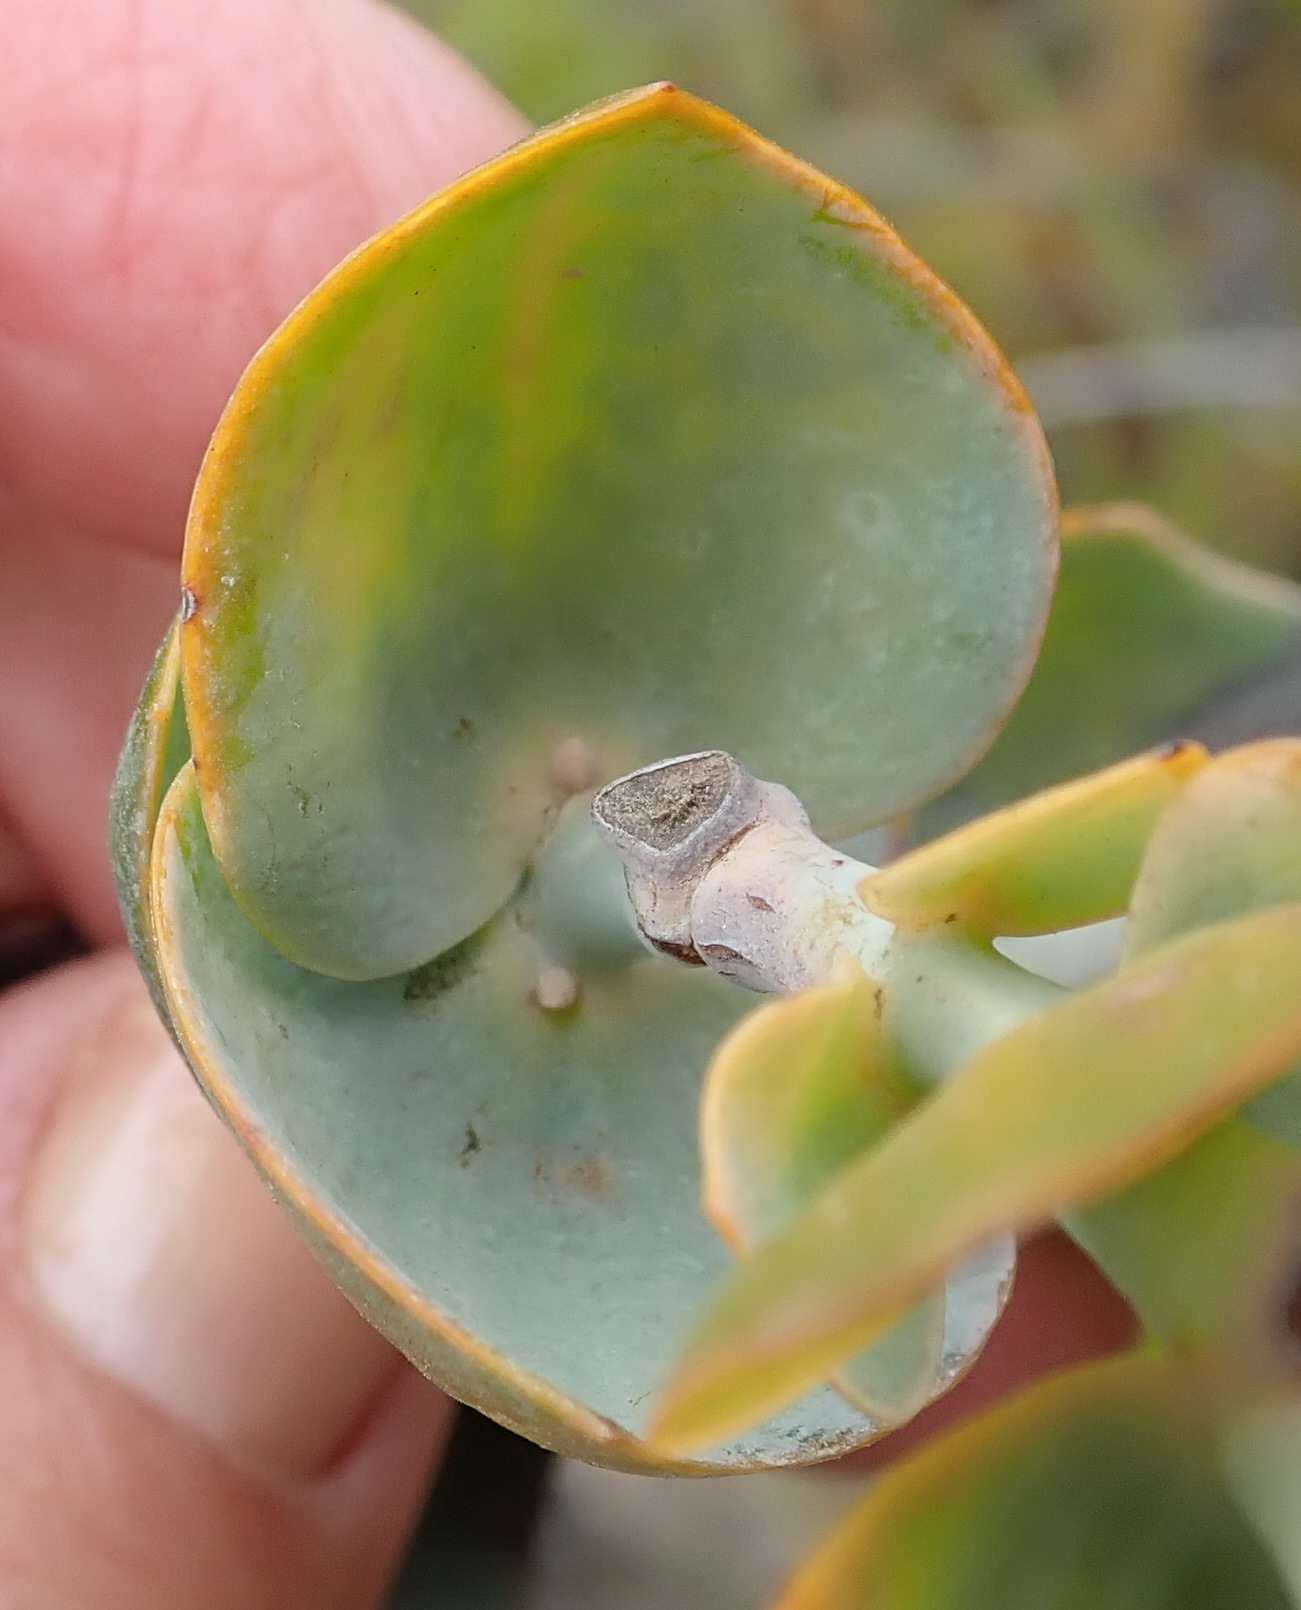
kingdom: Plantae
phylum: Tracheophyta
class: Magnoliopsida
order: Santalales
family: Thesiaceae
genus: Thesium
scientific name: Thesium euphorbioides
